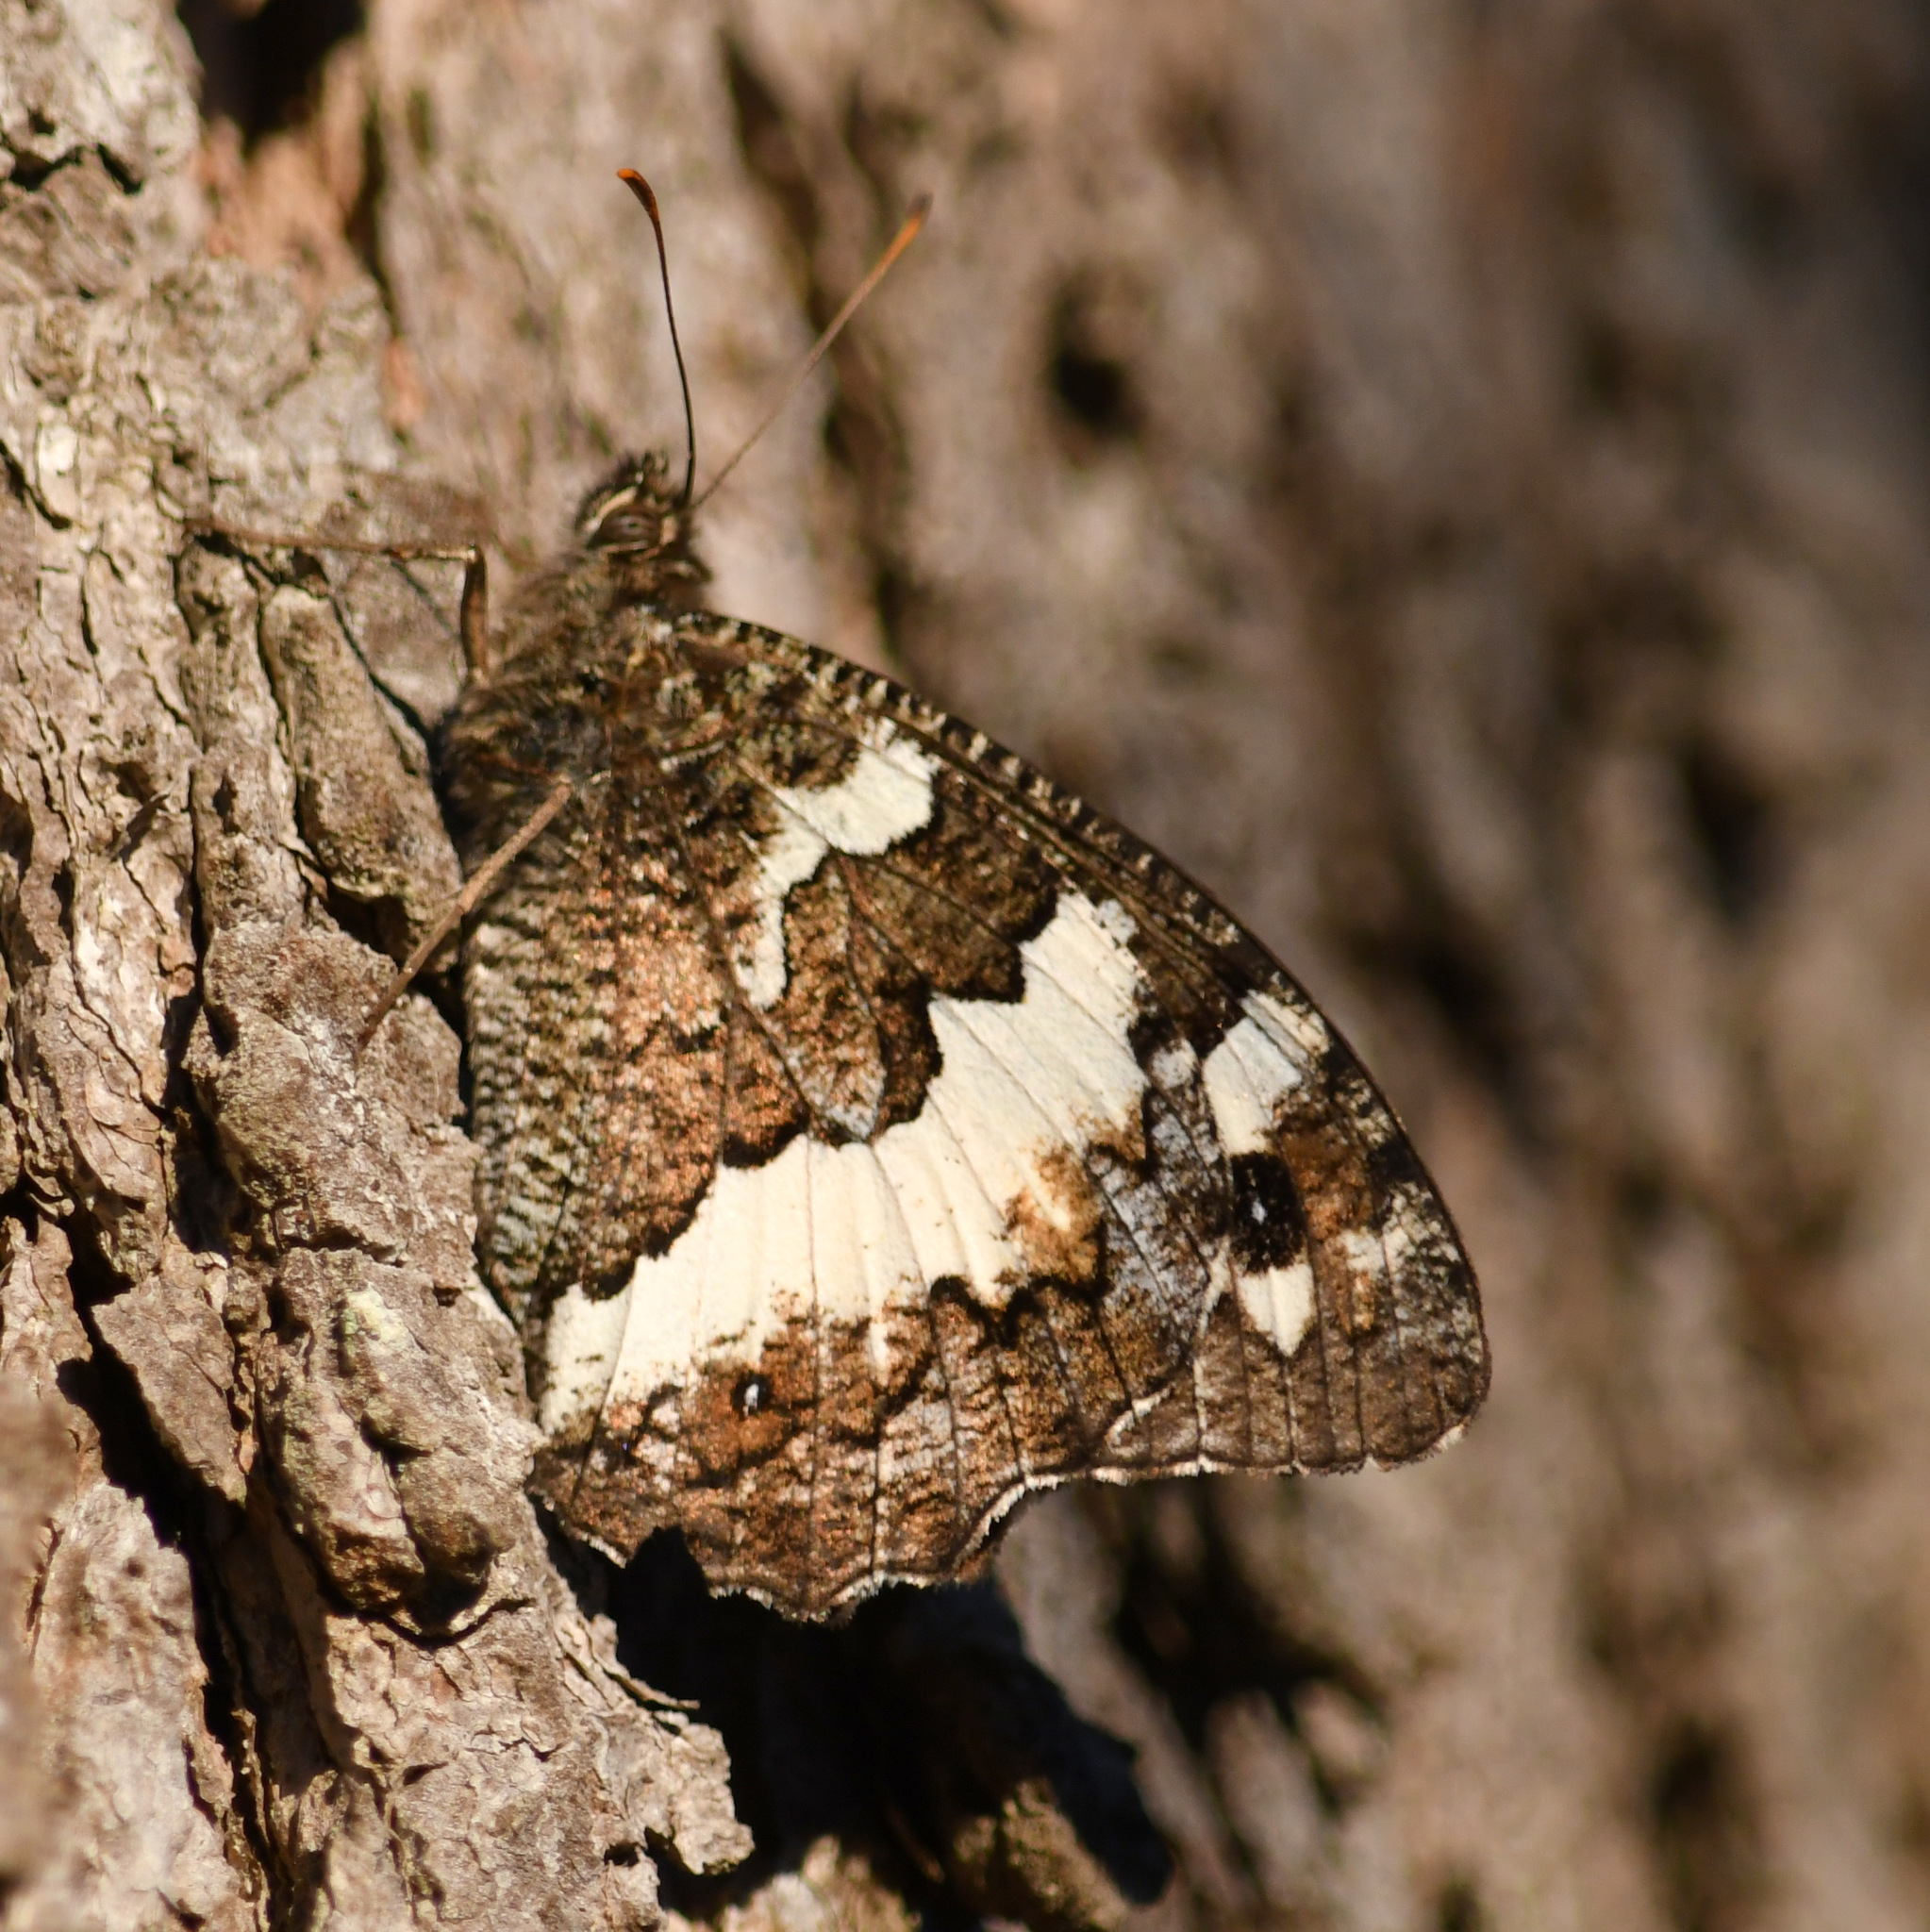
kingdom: Animalia
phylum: Arthropoda
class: Insecta
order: Lepidoptera
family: Lycaenidae
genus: Loweia
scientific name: Loweia tityrus
